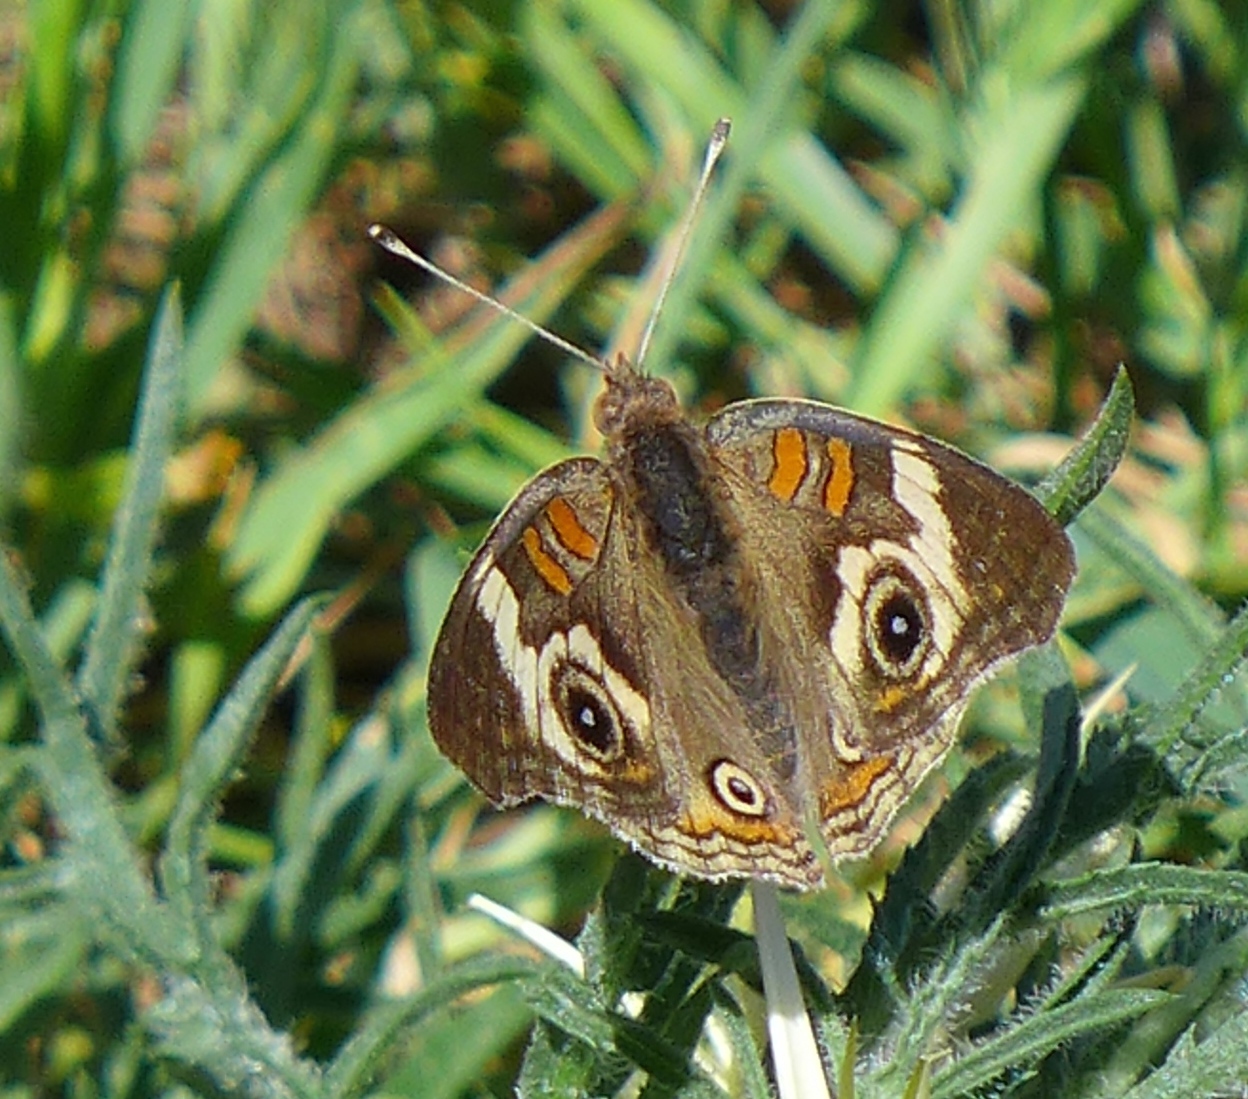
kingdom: Animalia
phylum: Arthropoda
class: Insecta
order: Lepidoptera
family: Nymphalidae
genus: Junonia
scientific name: Junonia grisea
